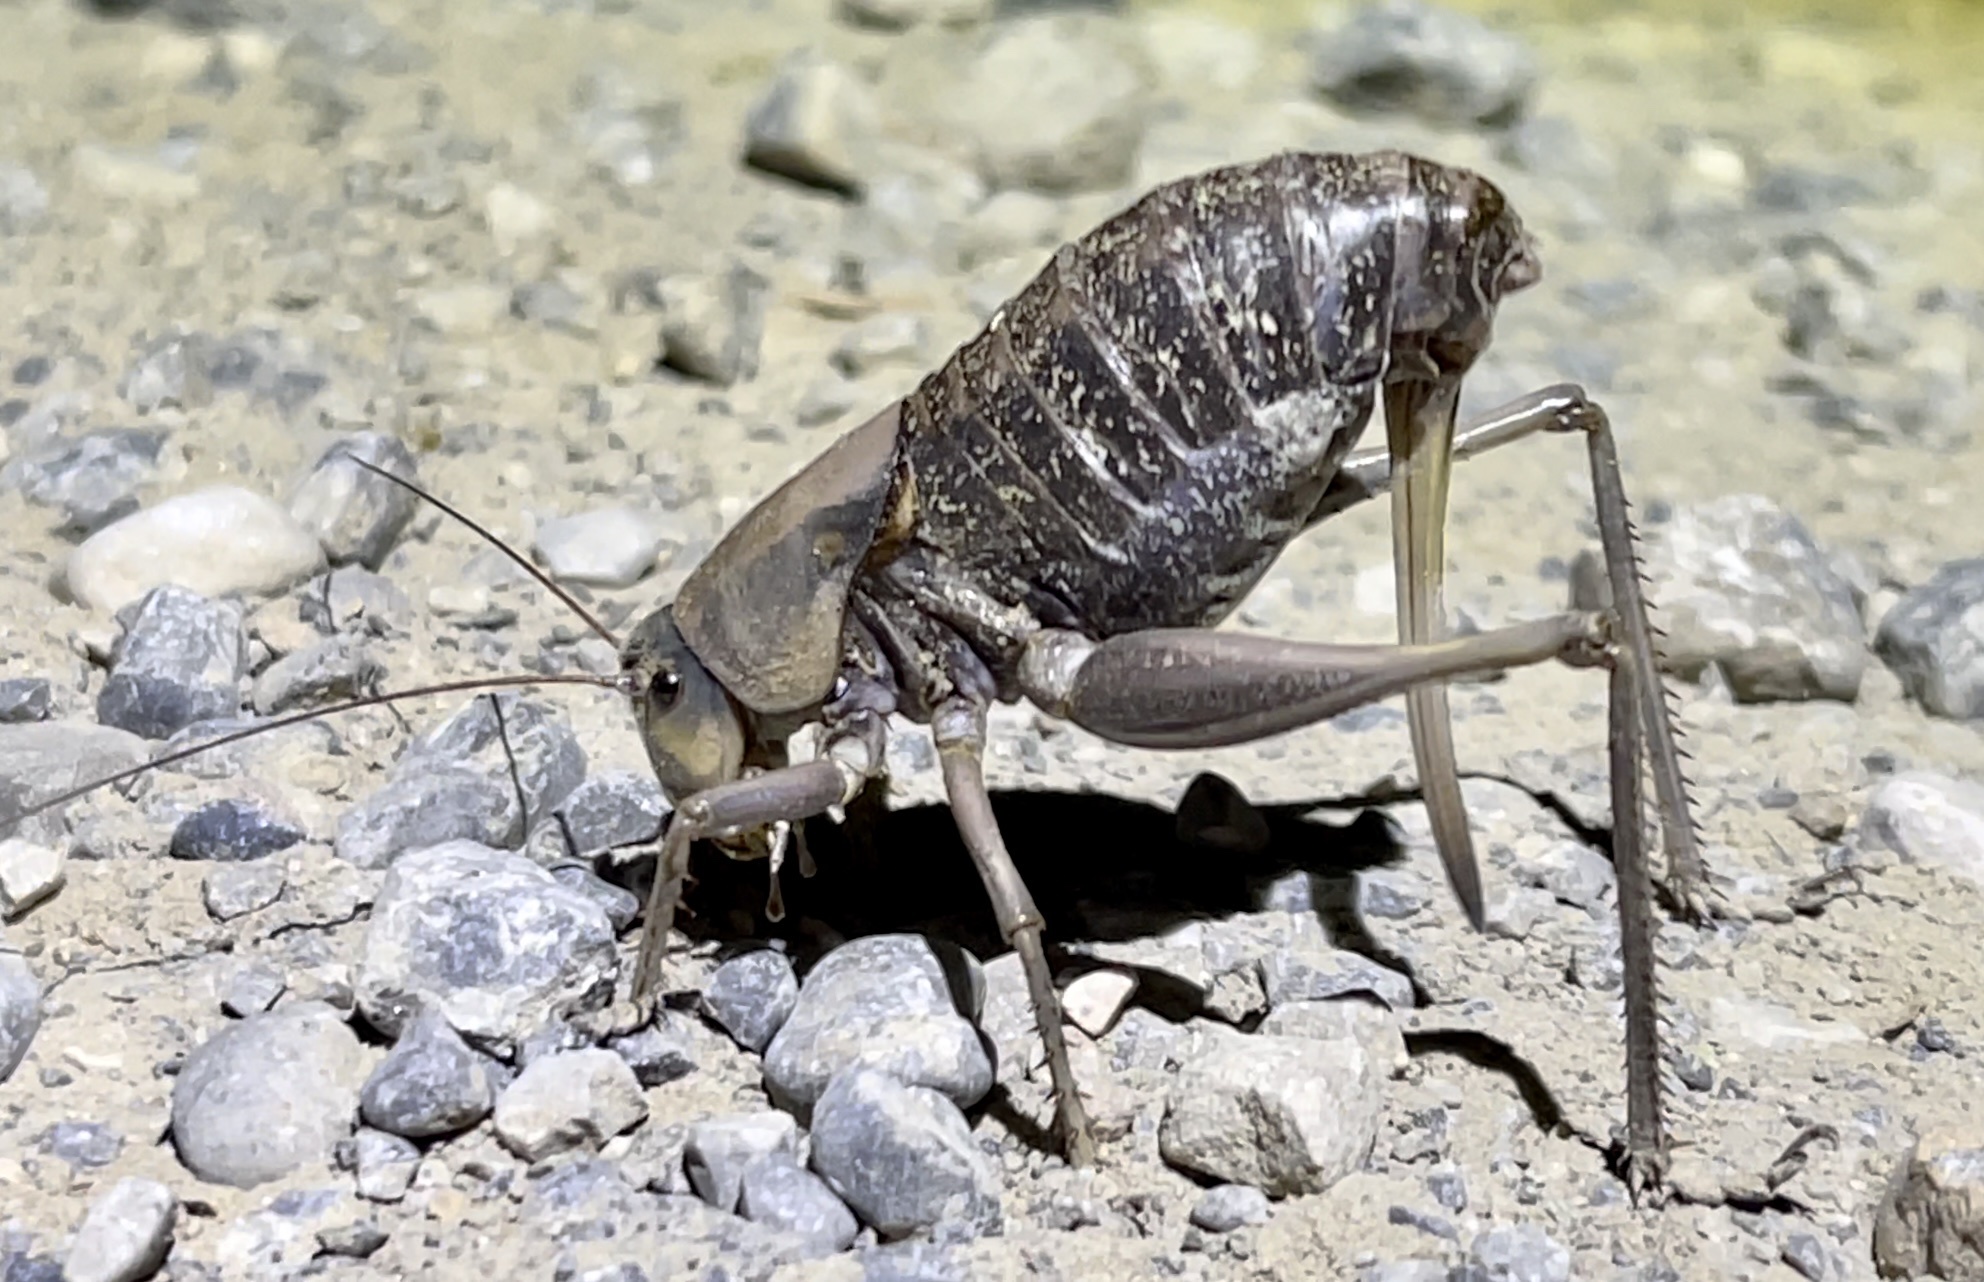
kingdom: Animalia
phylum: Arthropoda
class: Insecta
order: Orthoptera
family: Tettigoniidae
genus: Anabrus
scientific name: Anabrus simplex
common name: Mormon cricket
